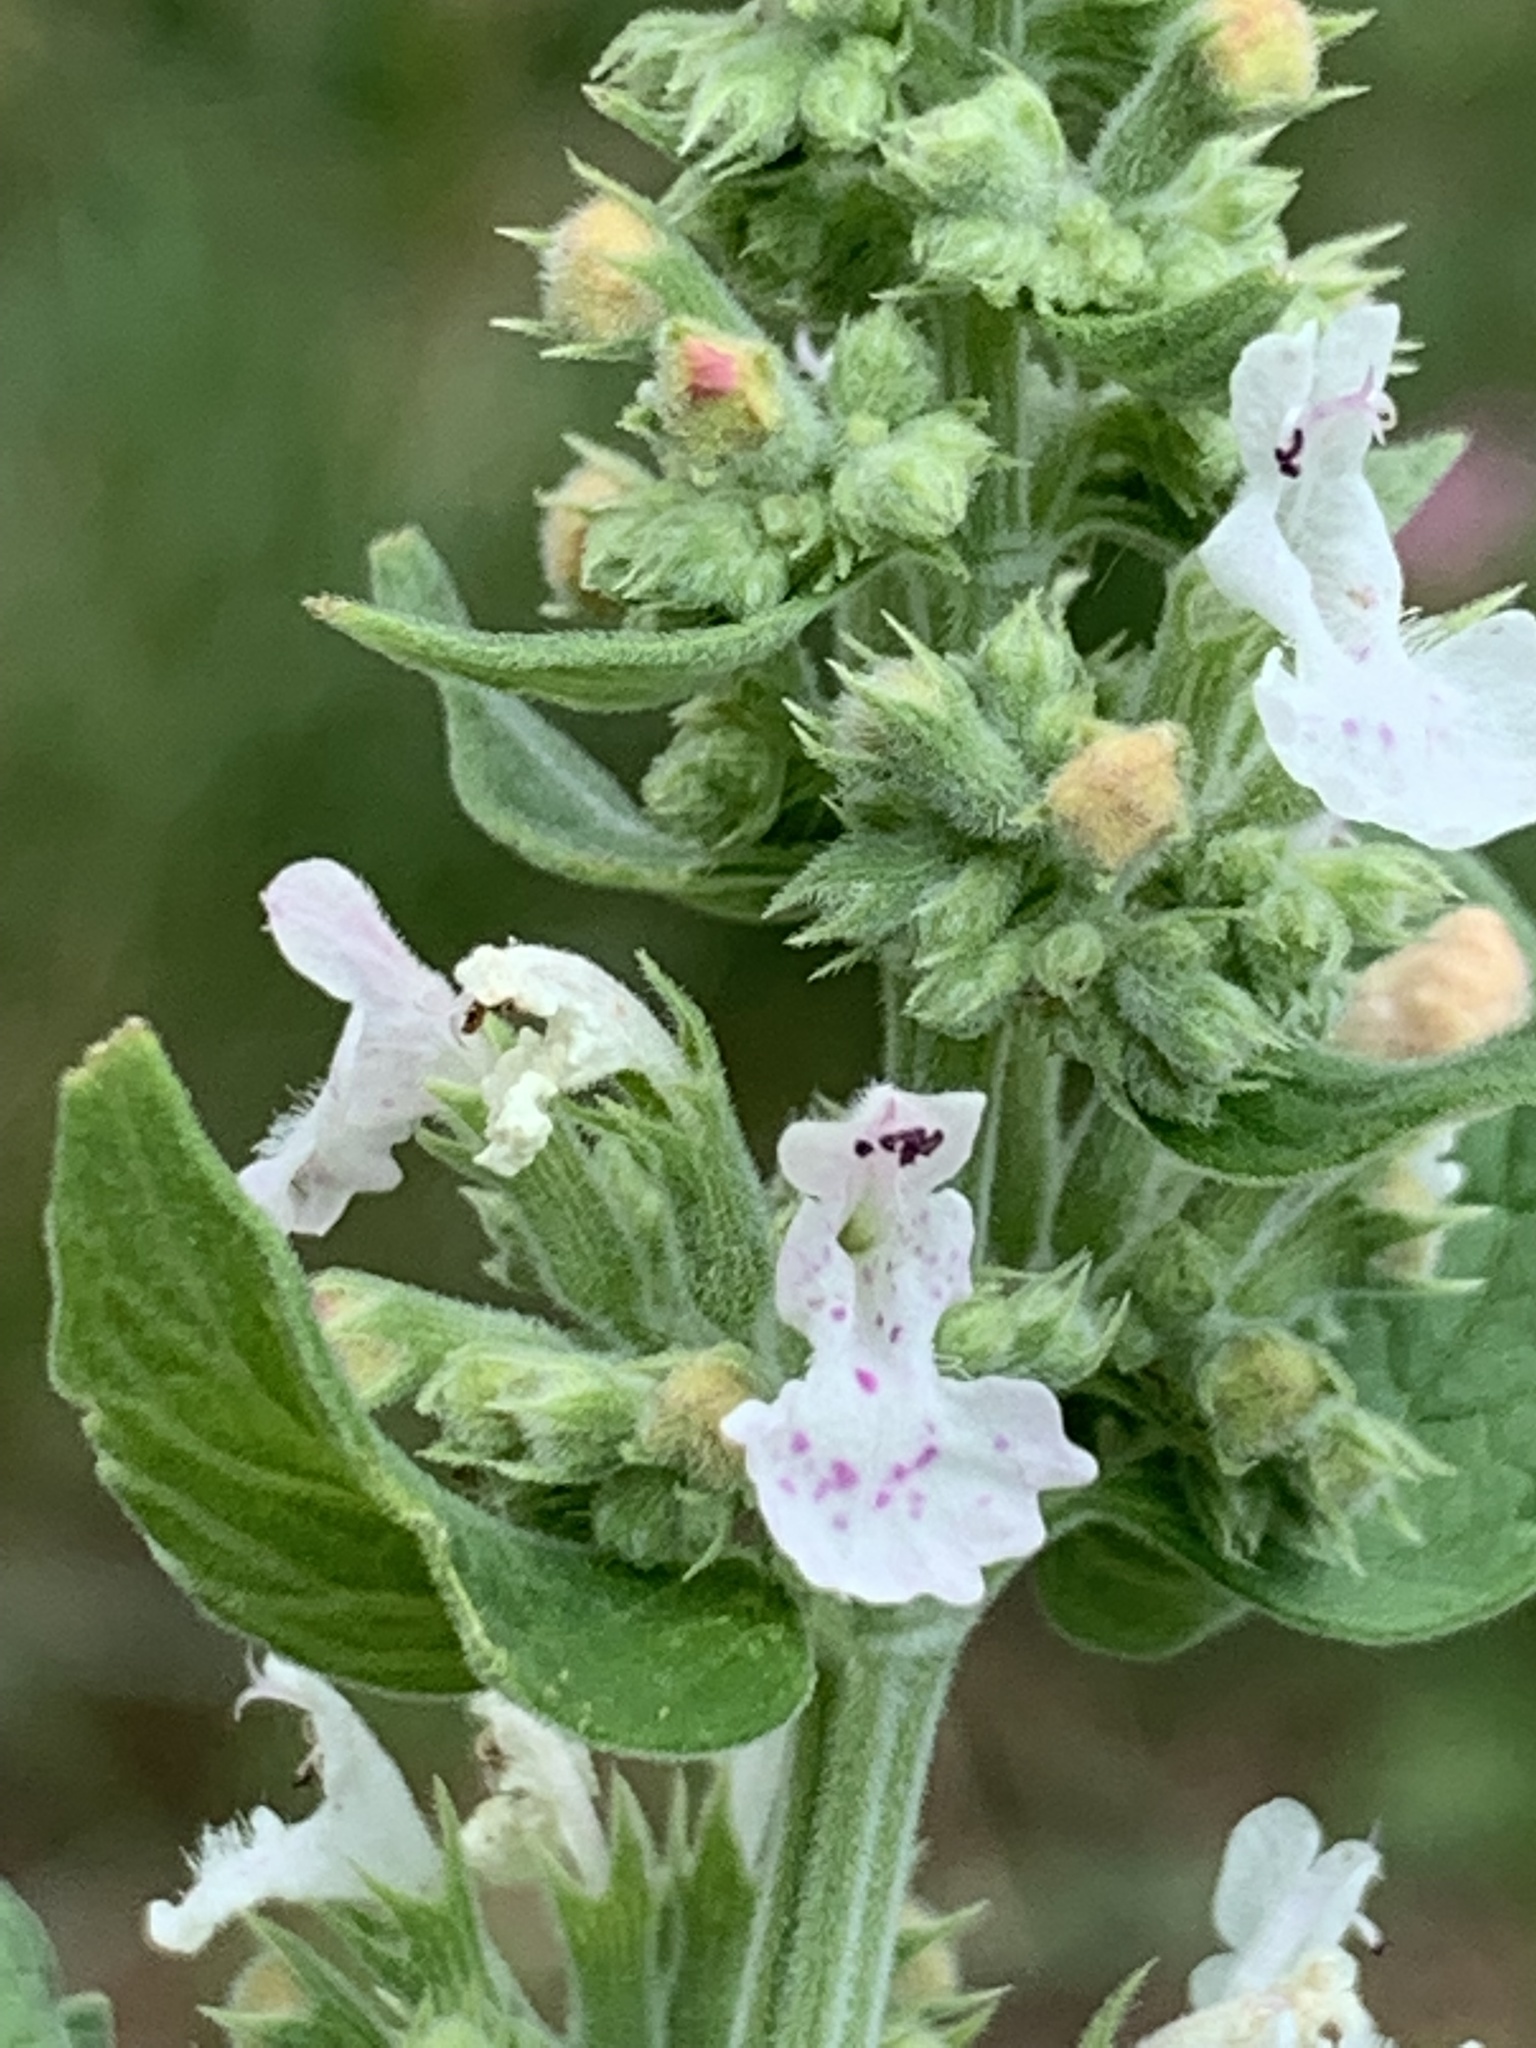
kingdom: Plantae
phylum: Tracheophyta
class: Magnoliopsida
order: Lamiales
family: Lamiaceae
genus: Nepeta
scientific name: Nepeta cataria
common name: Catnip
